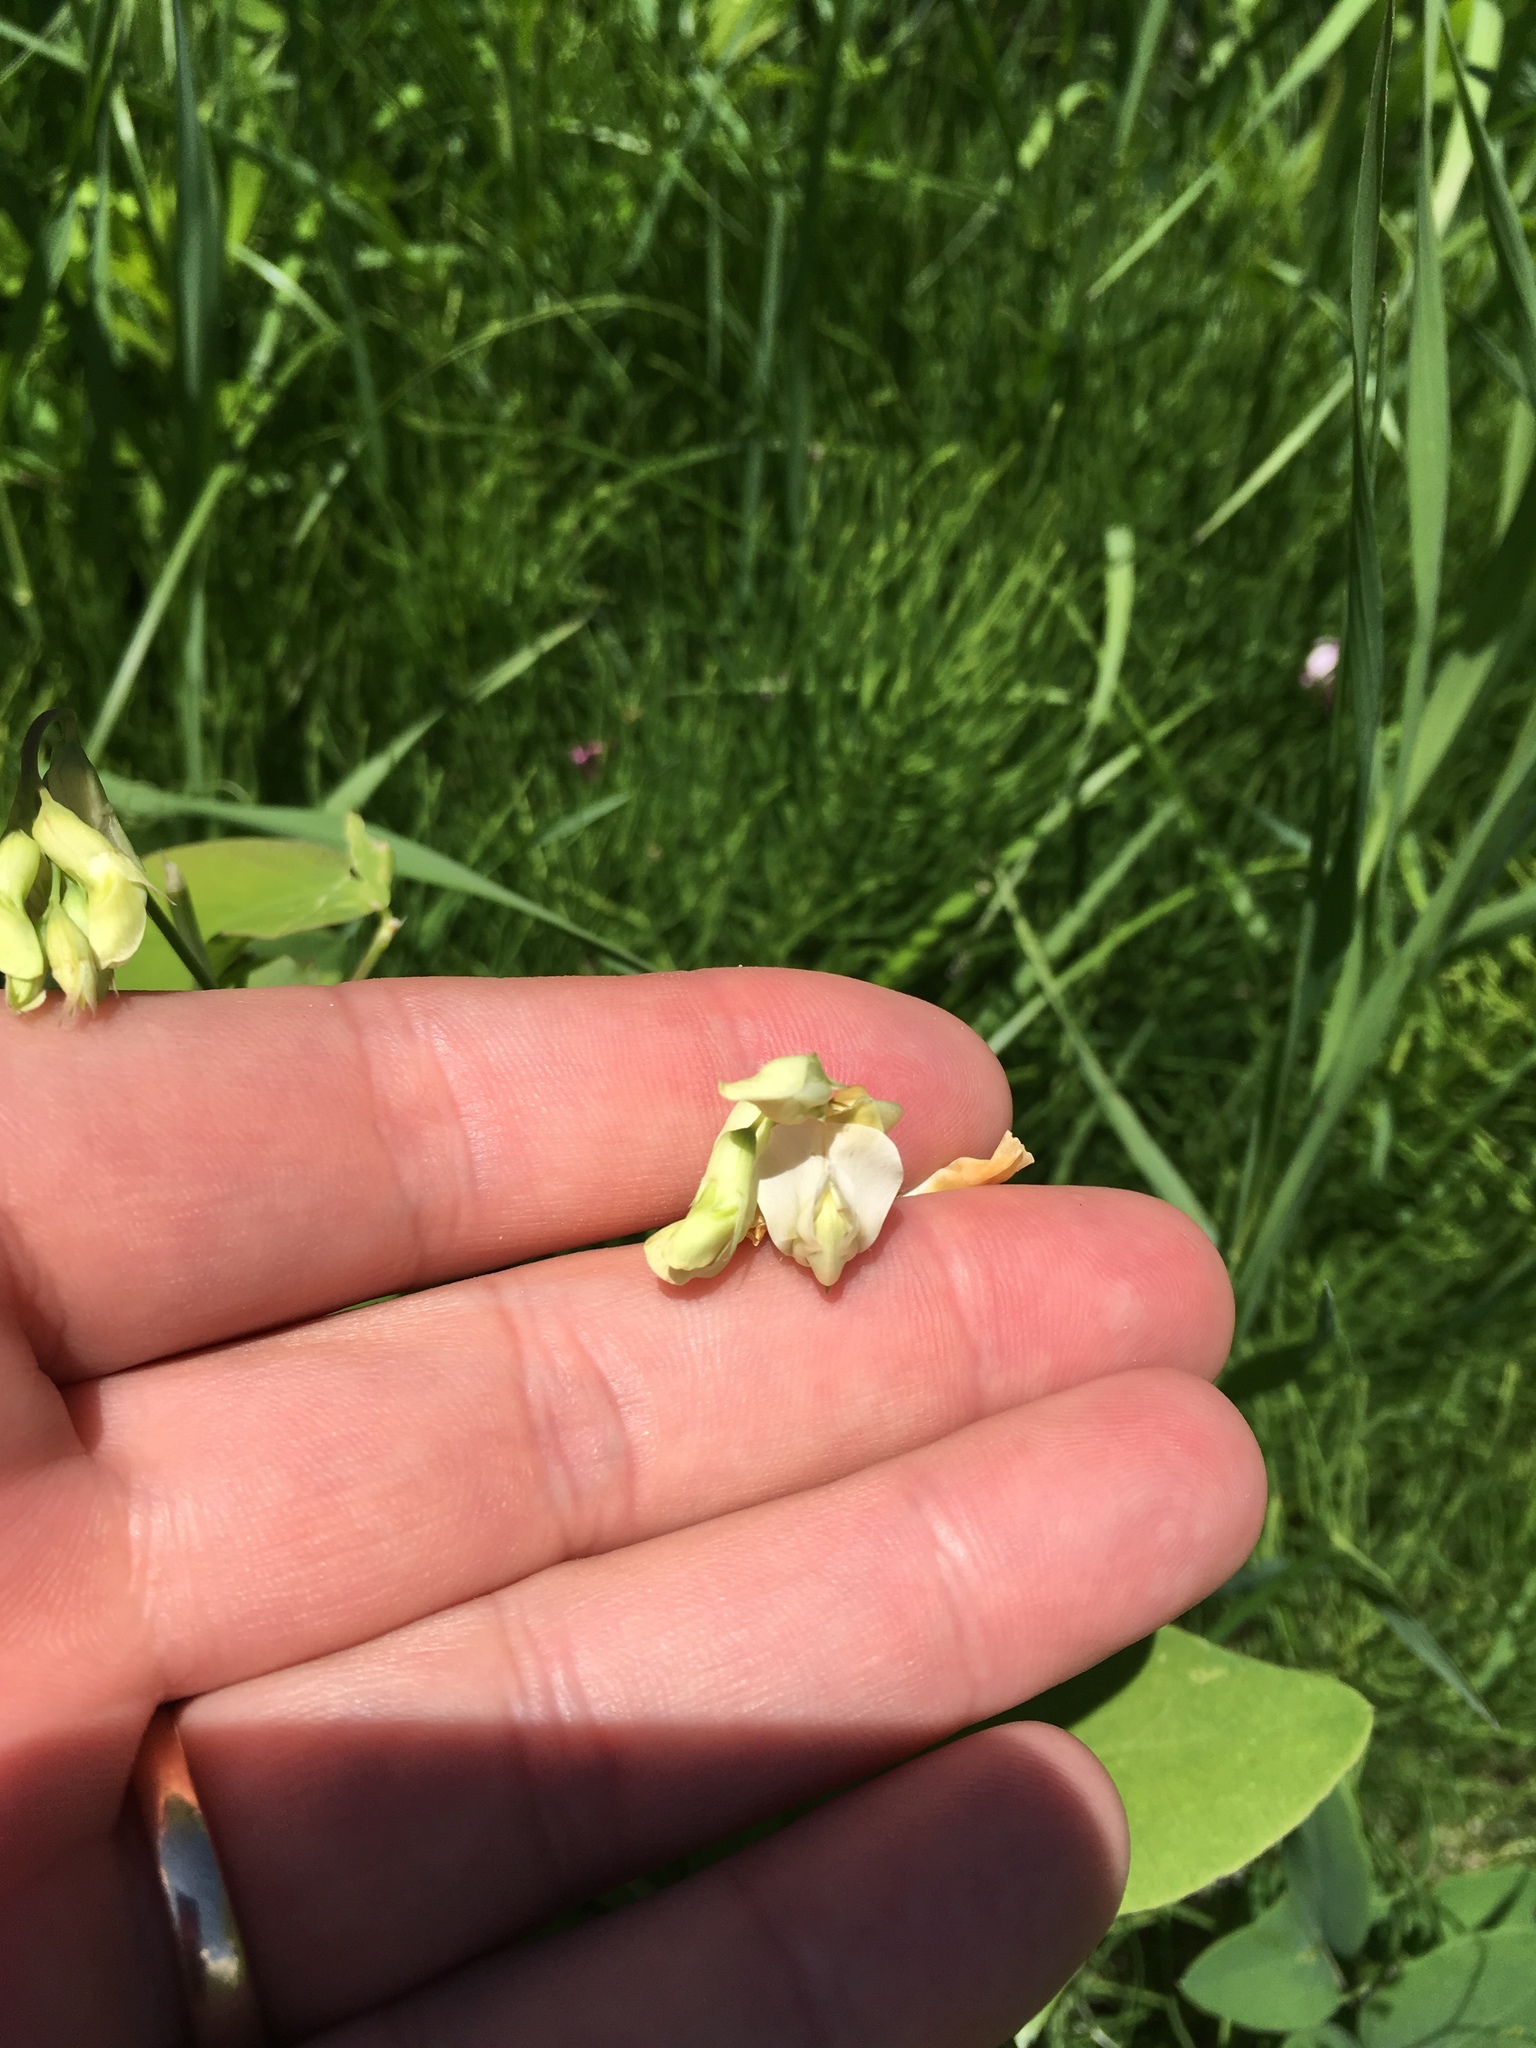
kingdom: Plantae
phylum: Tracheophyta
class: Magnoliopsida
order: Fabales
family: Fabaceae
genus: Lathyrus
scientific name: Lathyrus ochroleucus
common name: Pale vetchling
